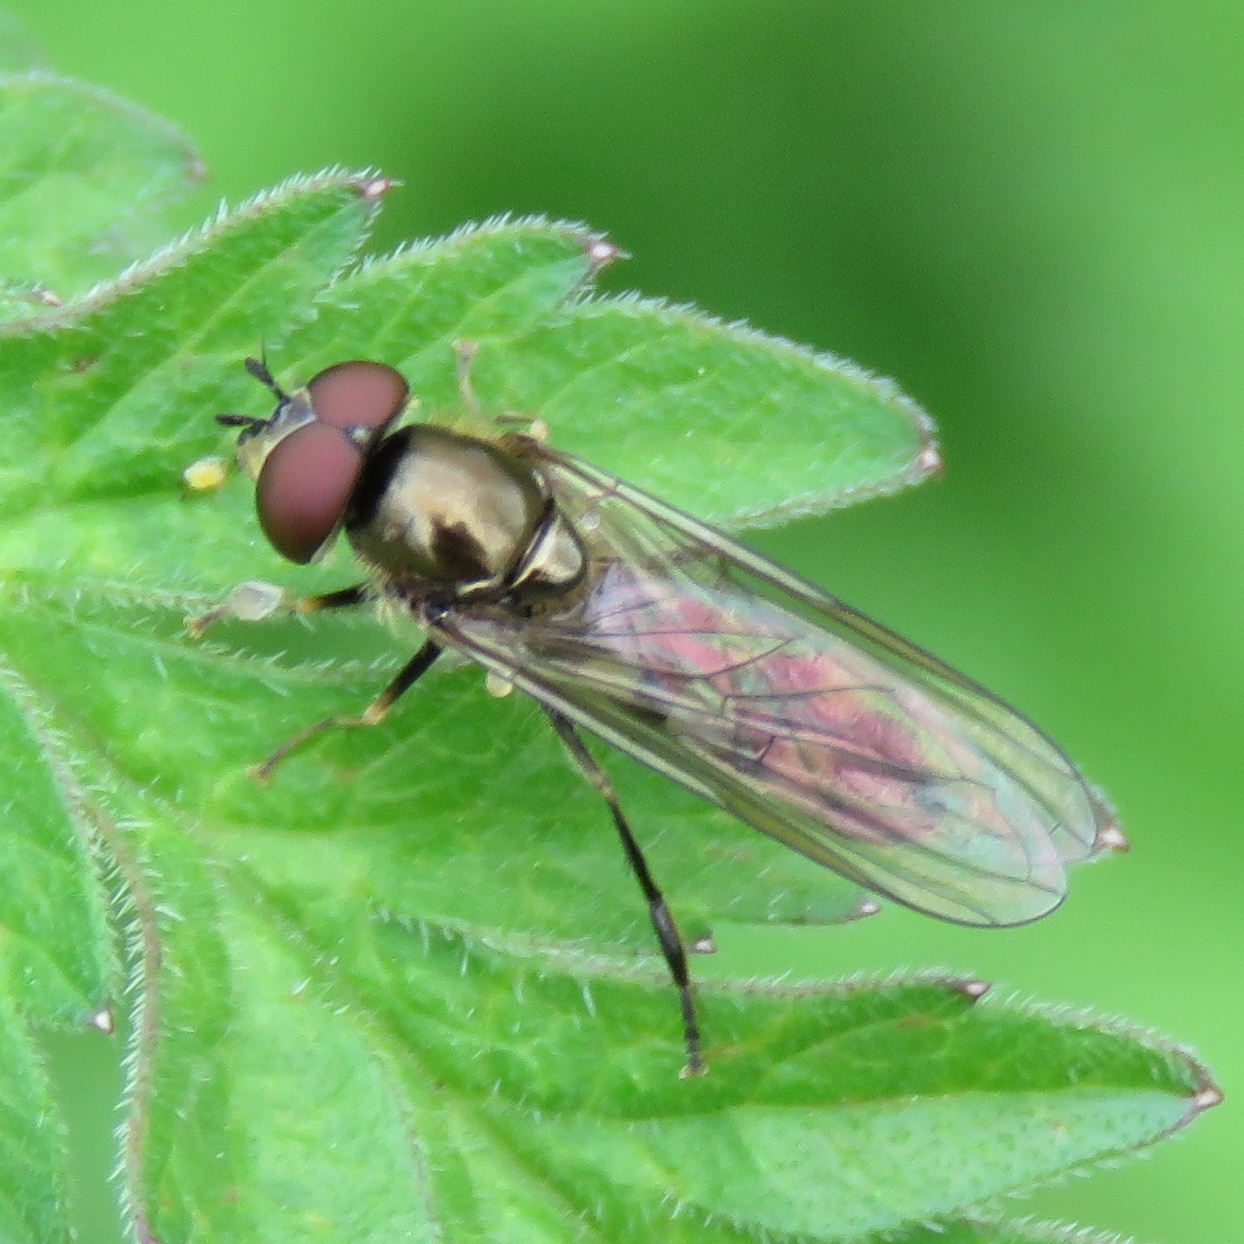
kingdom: Animalia
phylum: Arthropoda
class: Insecta
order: Diptera
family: Syrphidae
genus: Platycheirus
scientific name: Platycheirus ciliger
